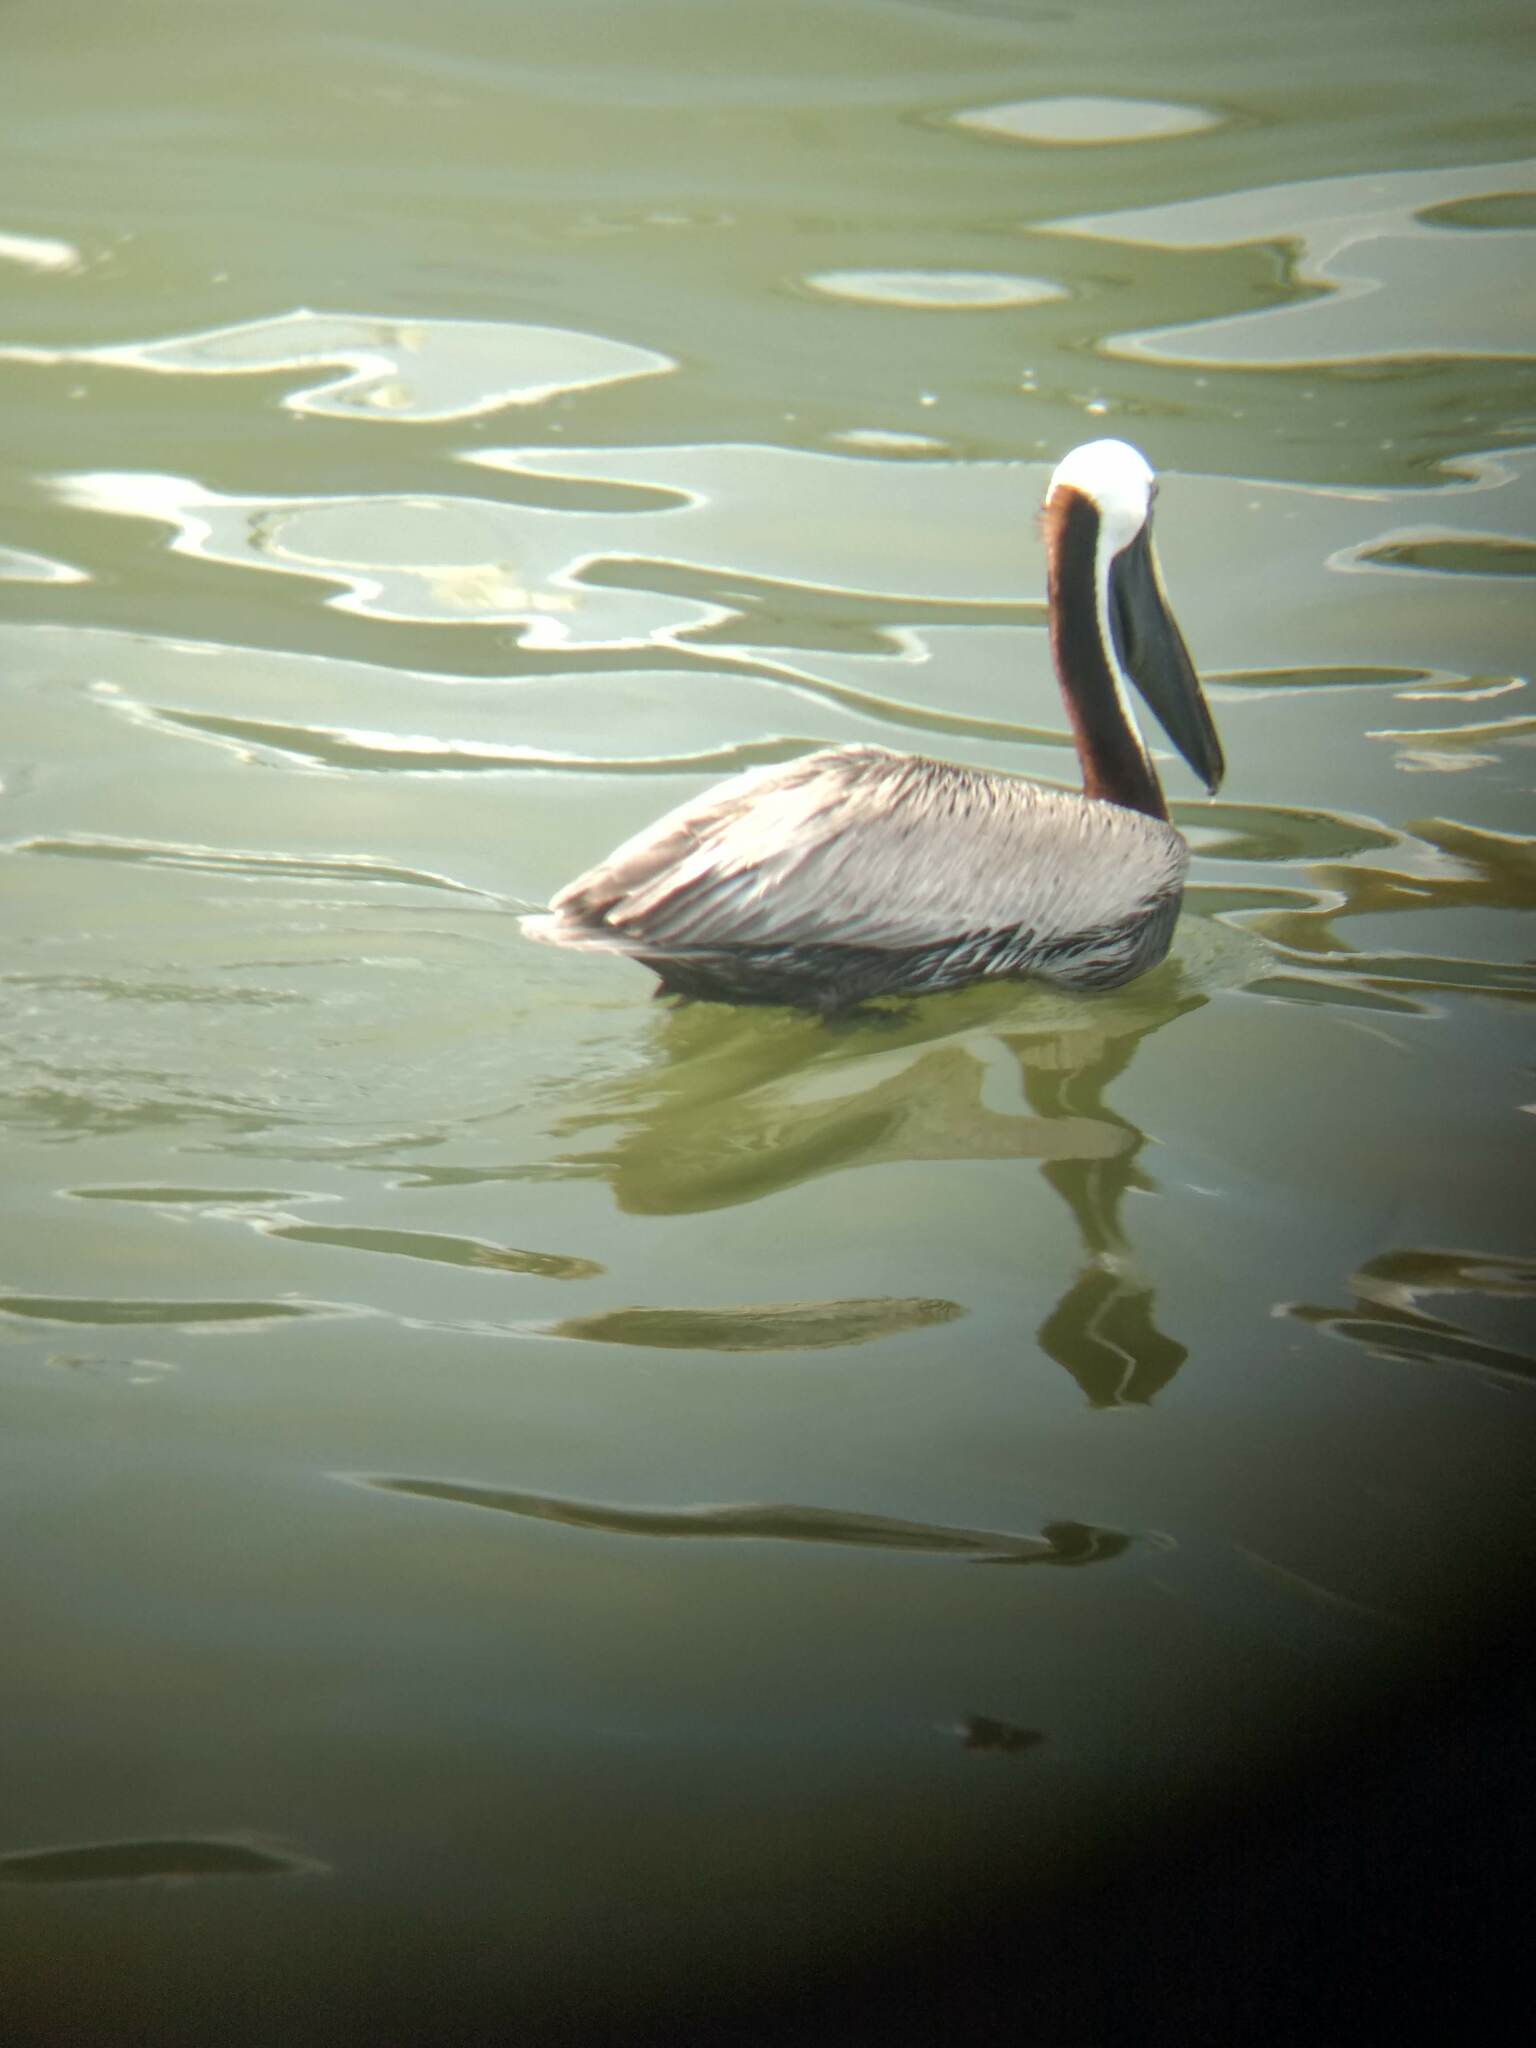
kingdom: Animalia
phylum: Chordata
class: Aves
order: Pelecaniformes
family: Pelecanidae
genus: Pelecanus
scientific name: Pelecanus occidentalis
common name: Brown pelican
